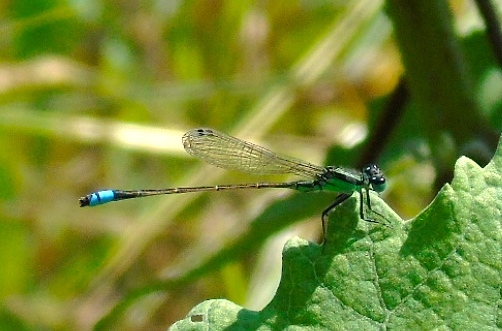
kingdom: Animalia
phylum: Arthropoda
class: Insecta
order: Odonata
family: Coenagrionidae
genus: Ischnura
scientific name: Ischnura ramburii
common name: Rambur's forktail
